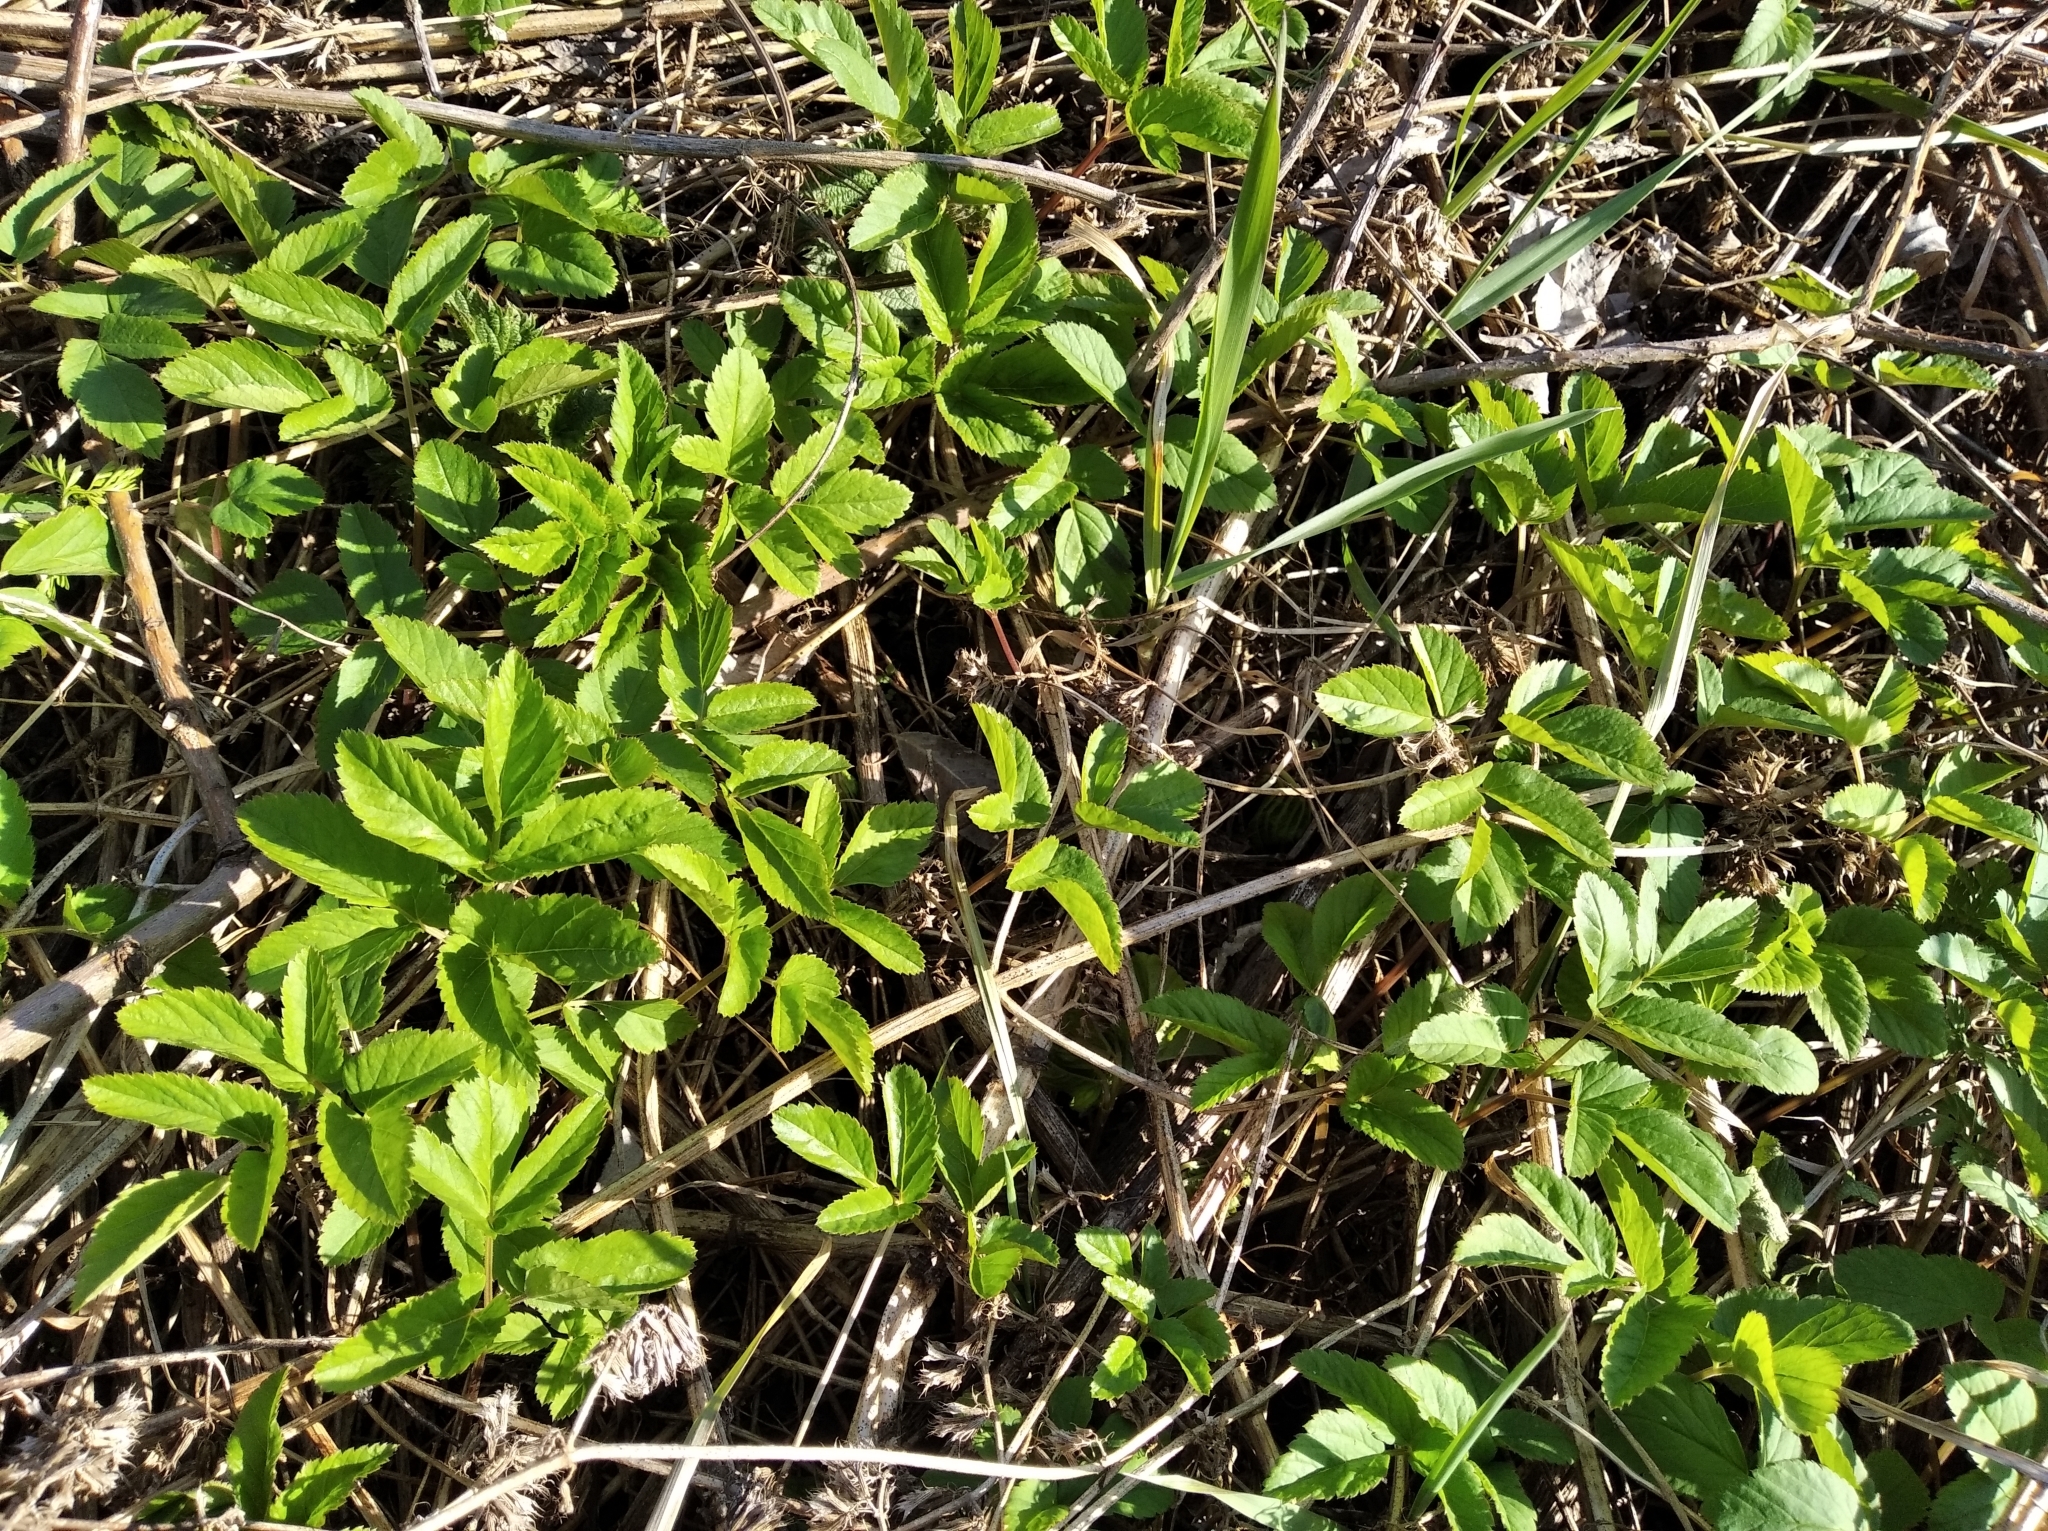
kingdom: Plantae
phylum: Tracheophyta
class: Magnoliopsida
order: Apiales
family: Apiaceae
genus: Aegopodium
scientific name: Aegopodium podagraria
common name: Ground-elder
